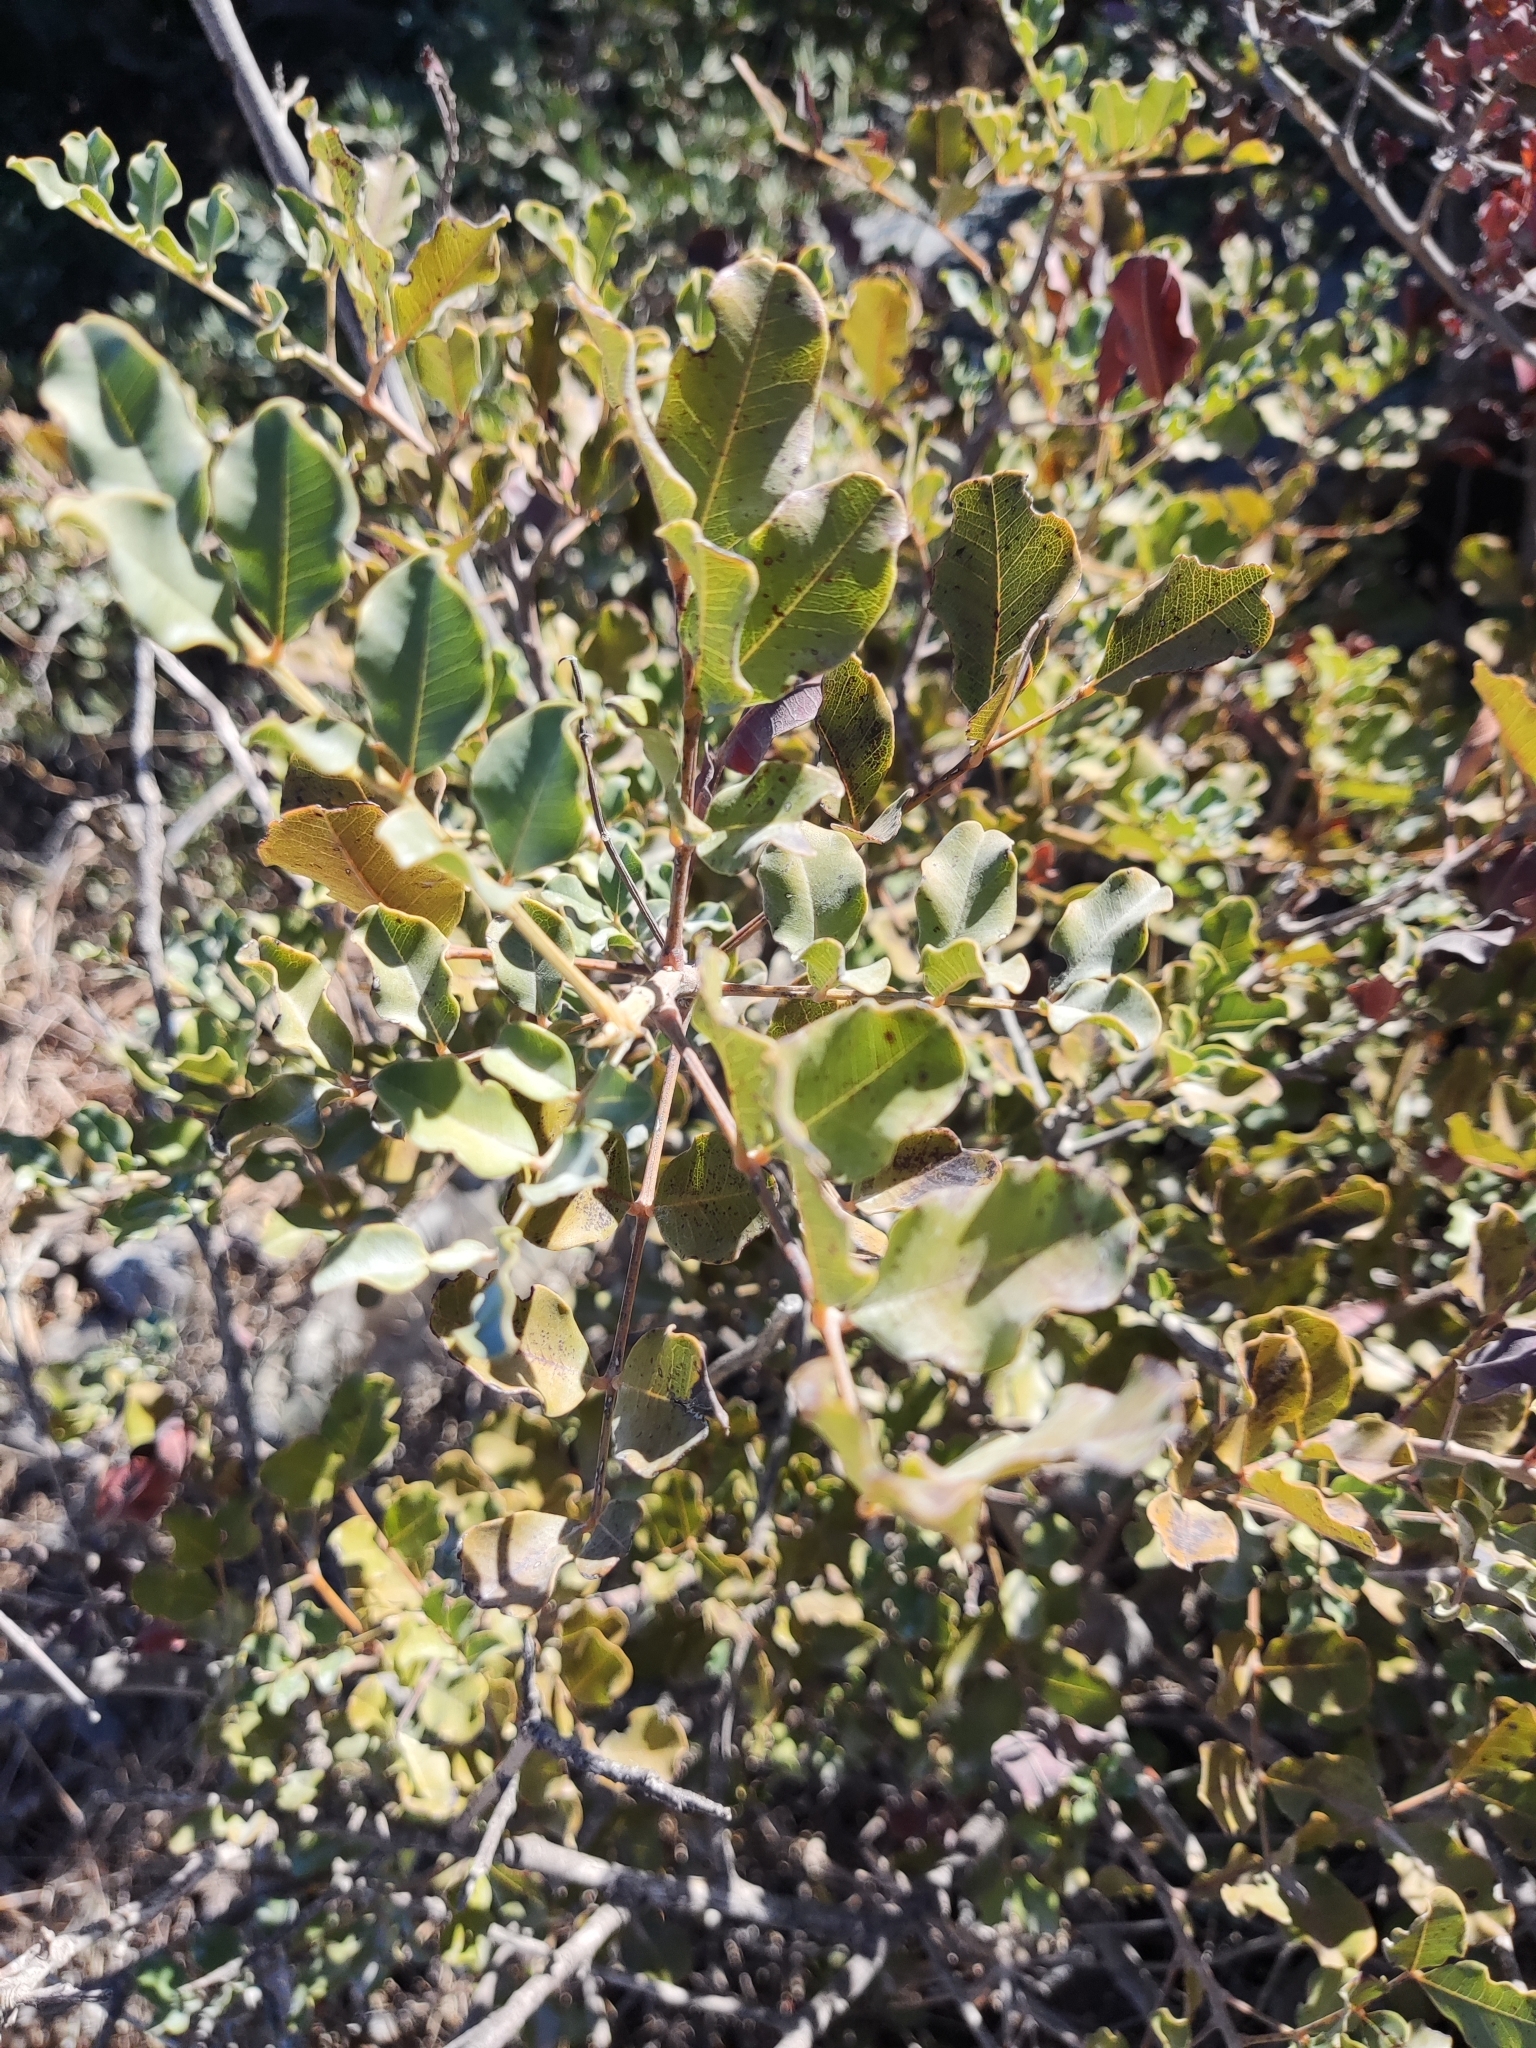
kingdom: Plantae
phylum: Tracheophyta
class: Magnoliopsida
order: Fabales
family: Fabaceae
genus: Ceratonia
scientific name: Ceratonia siliqua
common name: Carob
